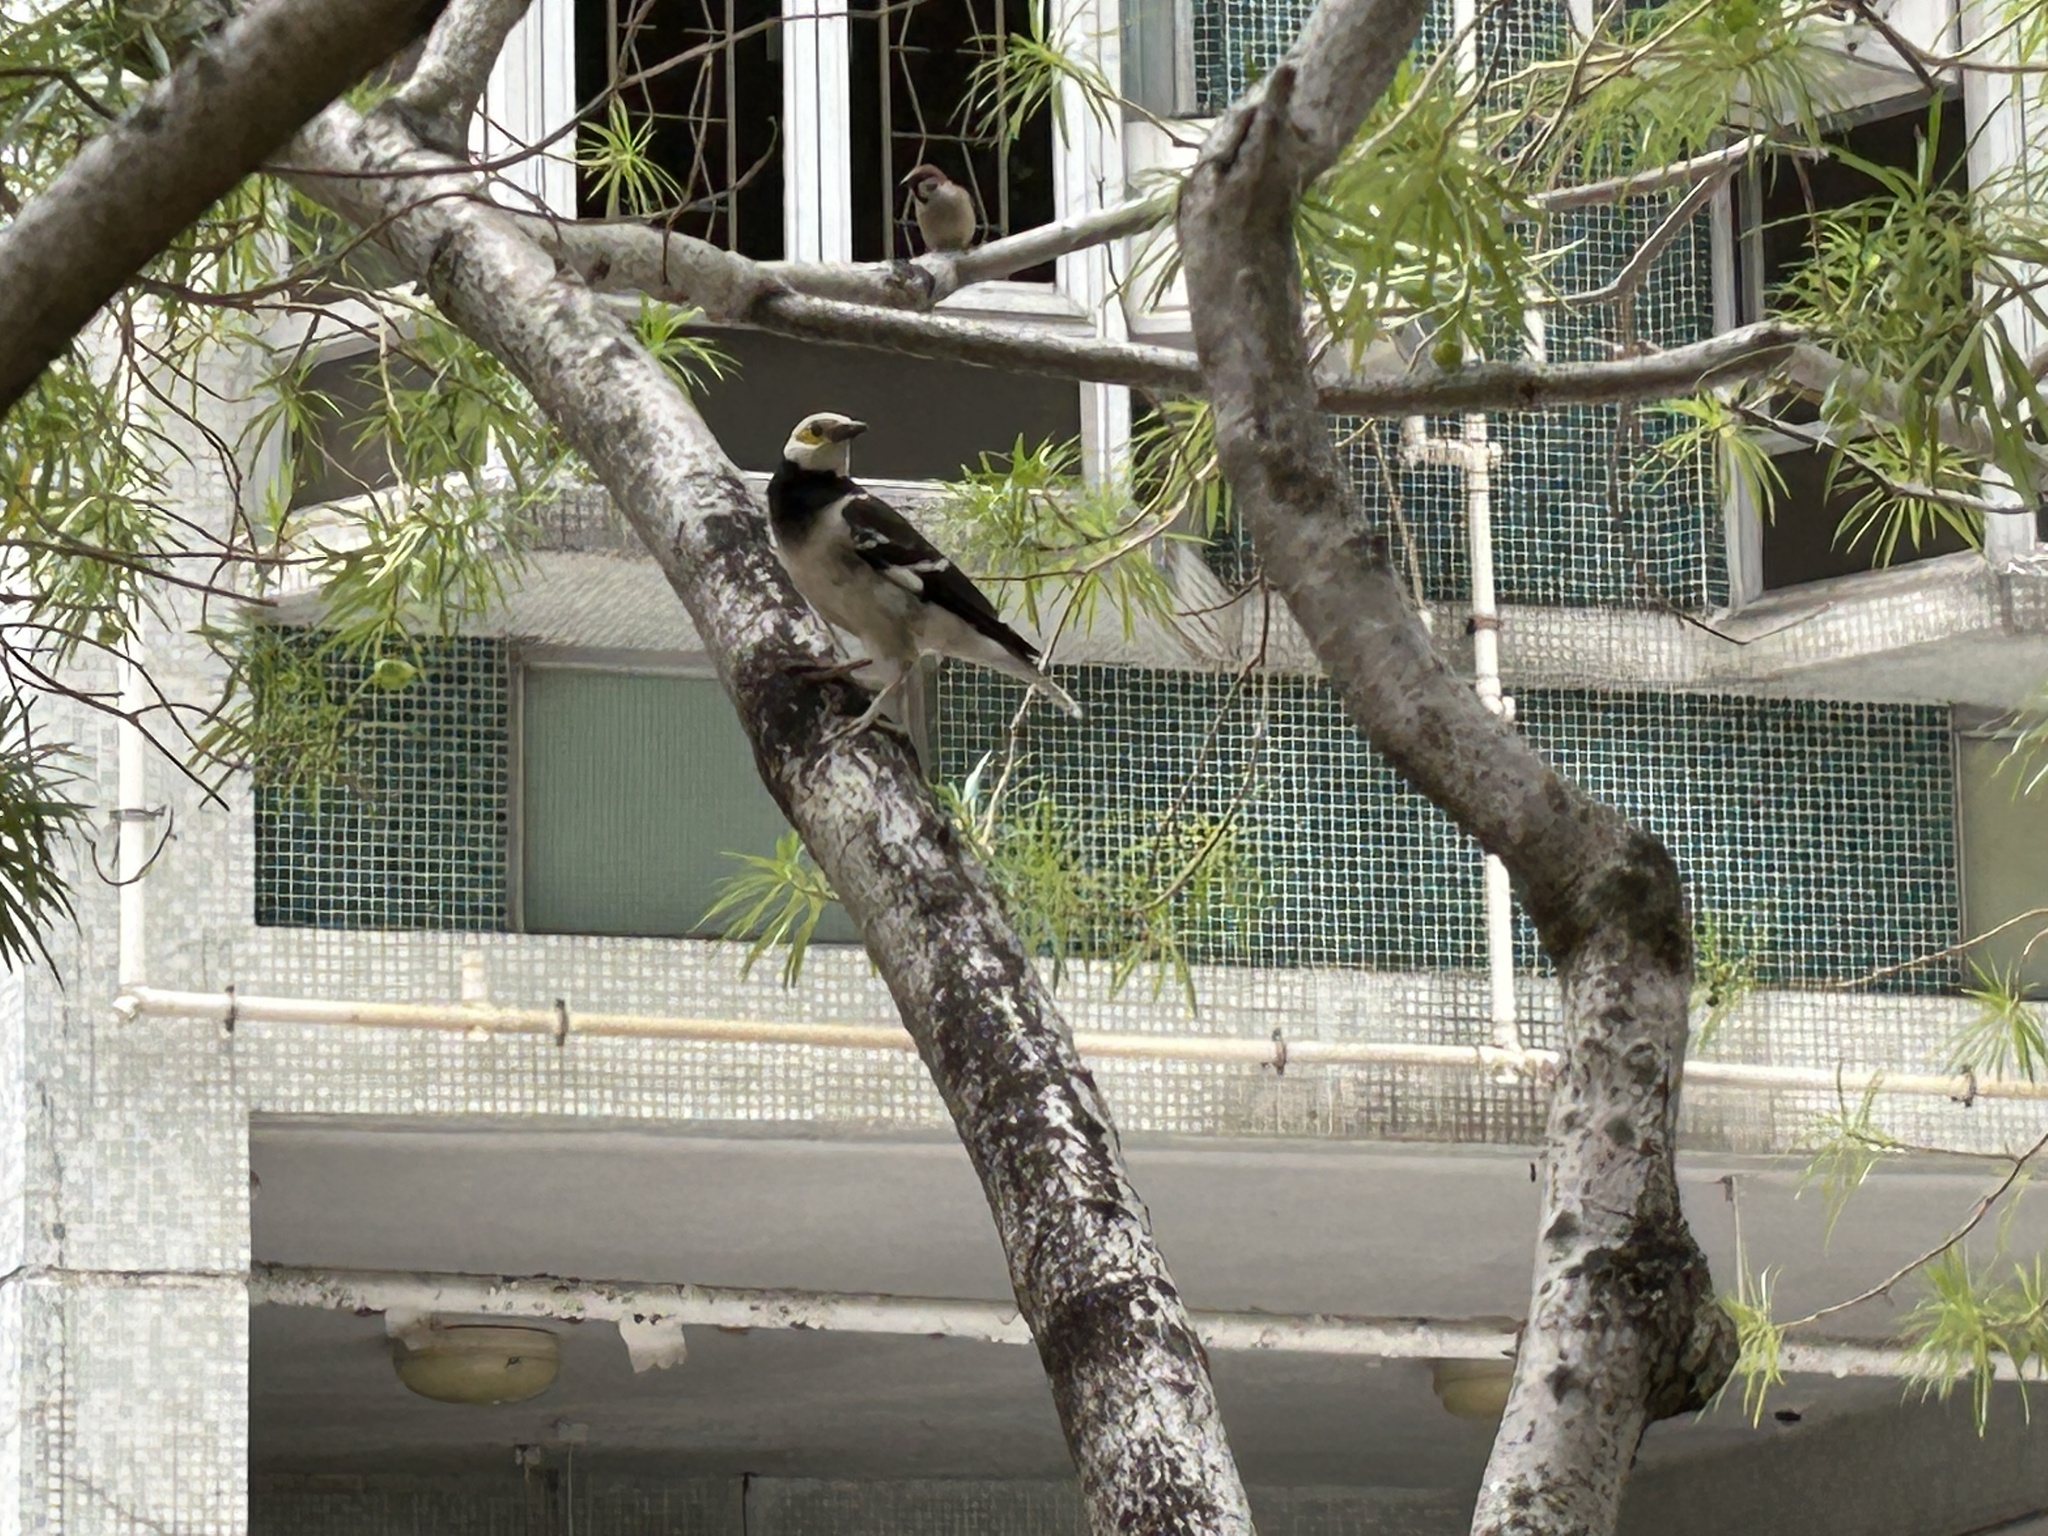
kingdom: Animalia
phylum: Chordata
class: Aves
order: Passeriformes
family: Sturnidae
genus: Gracupica
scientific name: Gracupica nigricollis
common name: Black-collared starling
